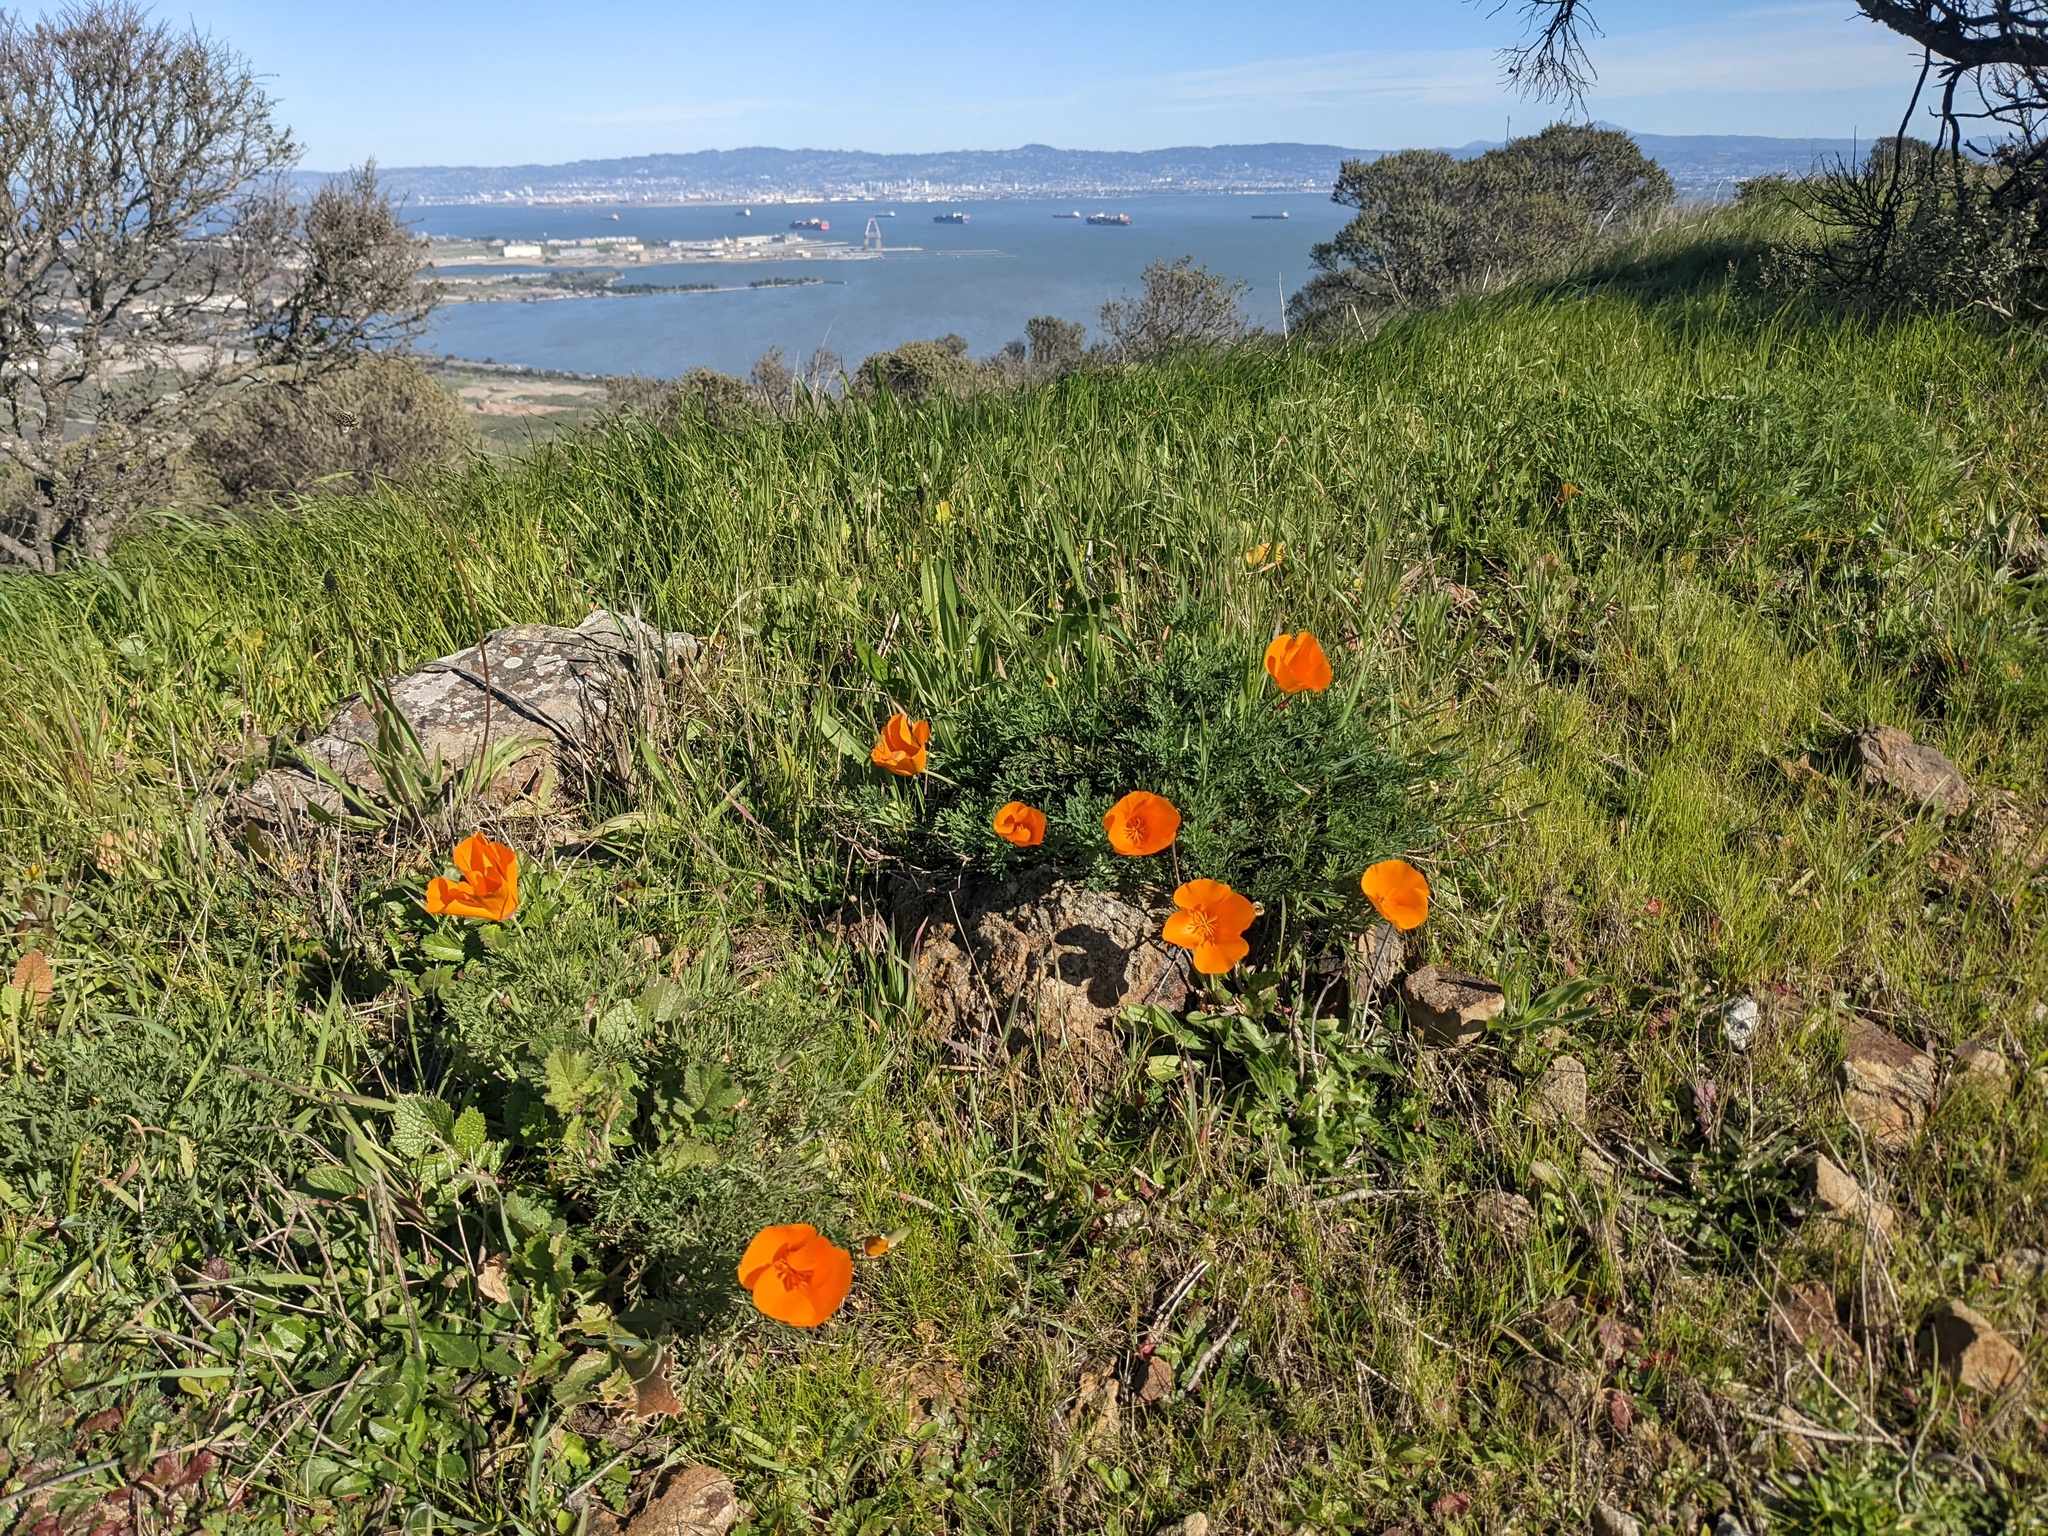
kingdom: Plantae
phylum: Tracheophyta
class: Magnoliopsida
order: Ranunculales
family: Papaveraceae
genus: Eschscholzia
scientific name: Eschscholzia californica
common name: California poppy
